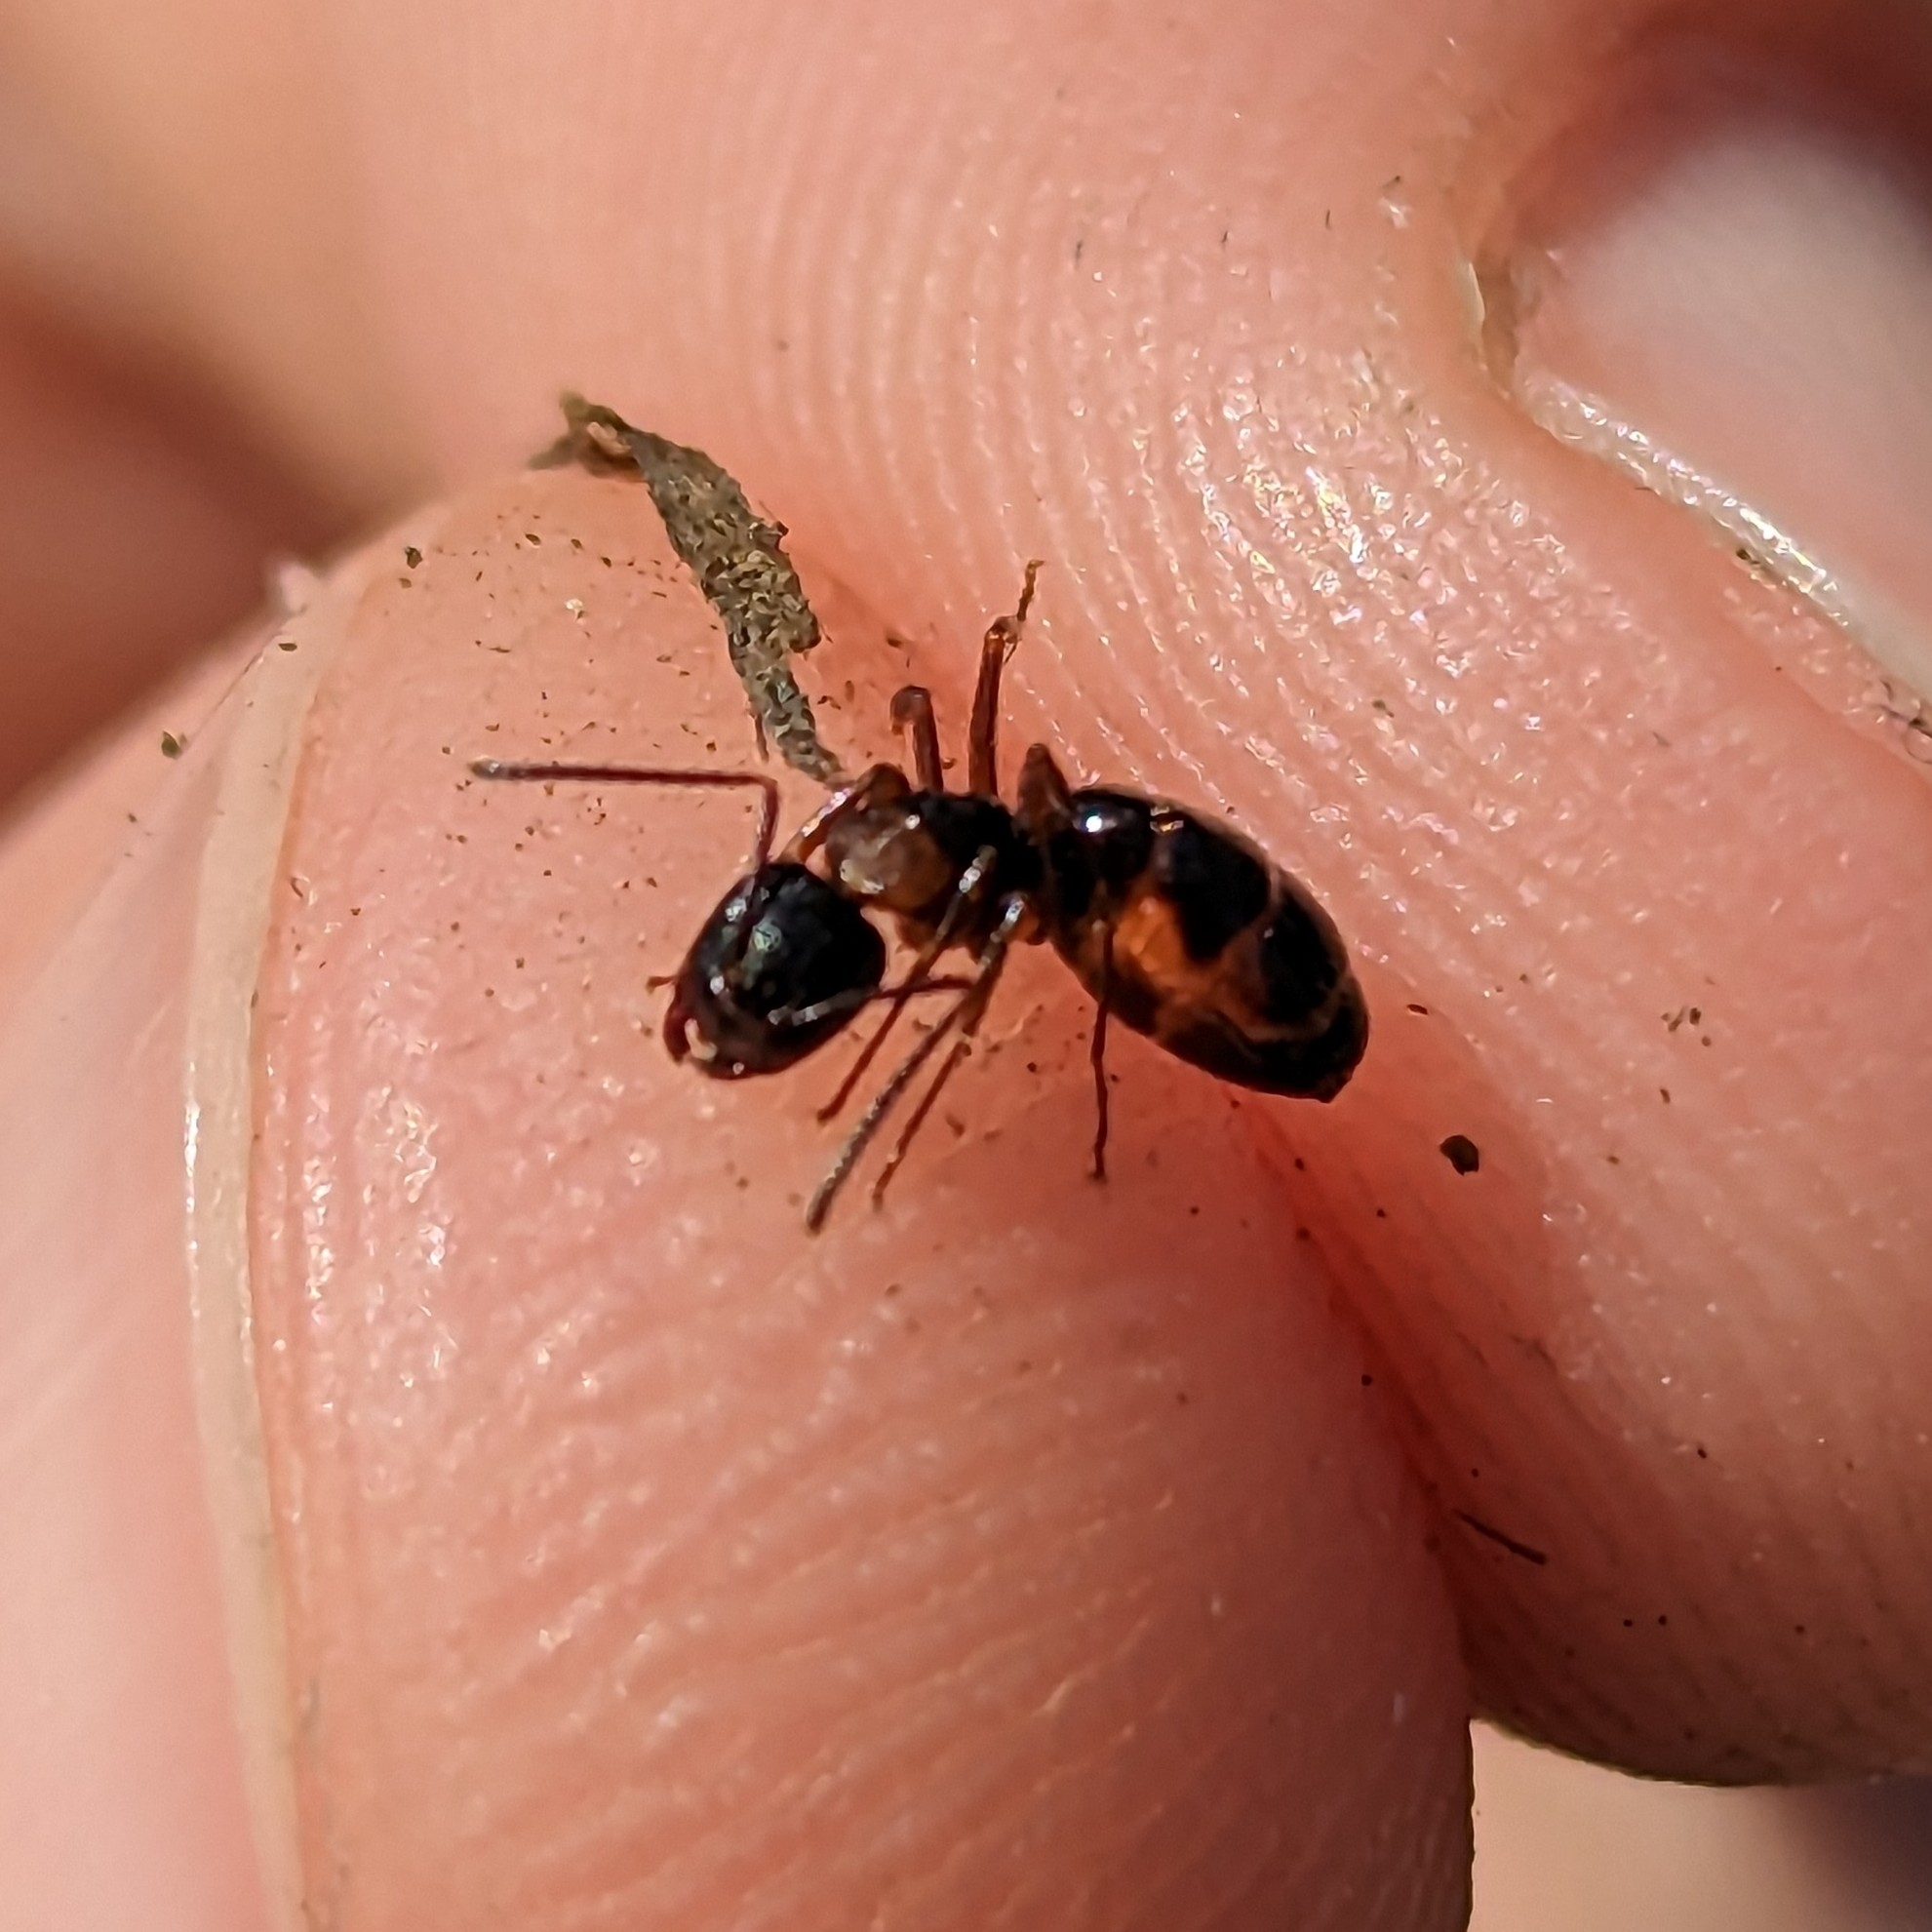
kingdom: Animalia
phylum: Arthropoda
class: Insecta
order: Hymenoptera
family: Formicidae
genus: Camponotus
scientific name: Camponotus nearcticus
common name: Smaller carpenter ant
